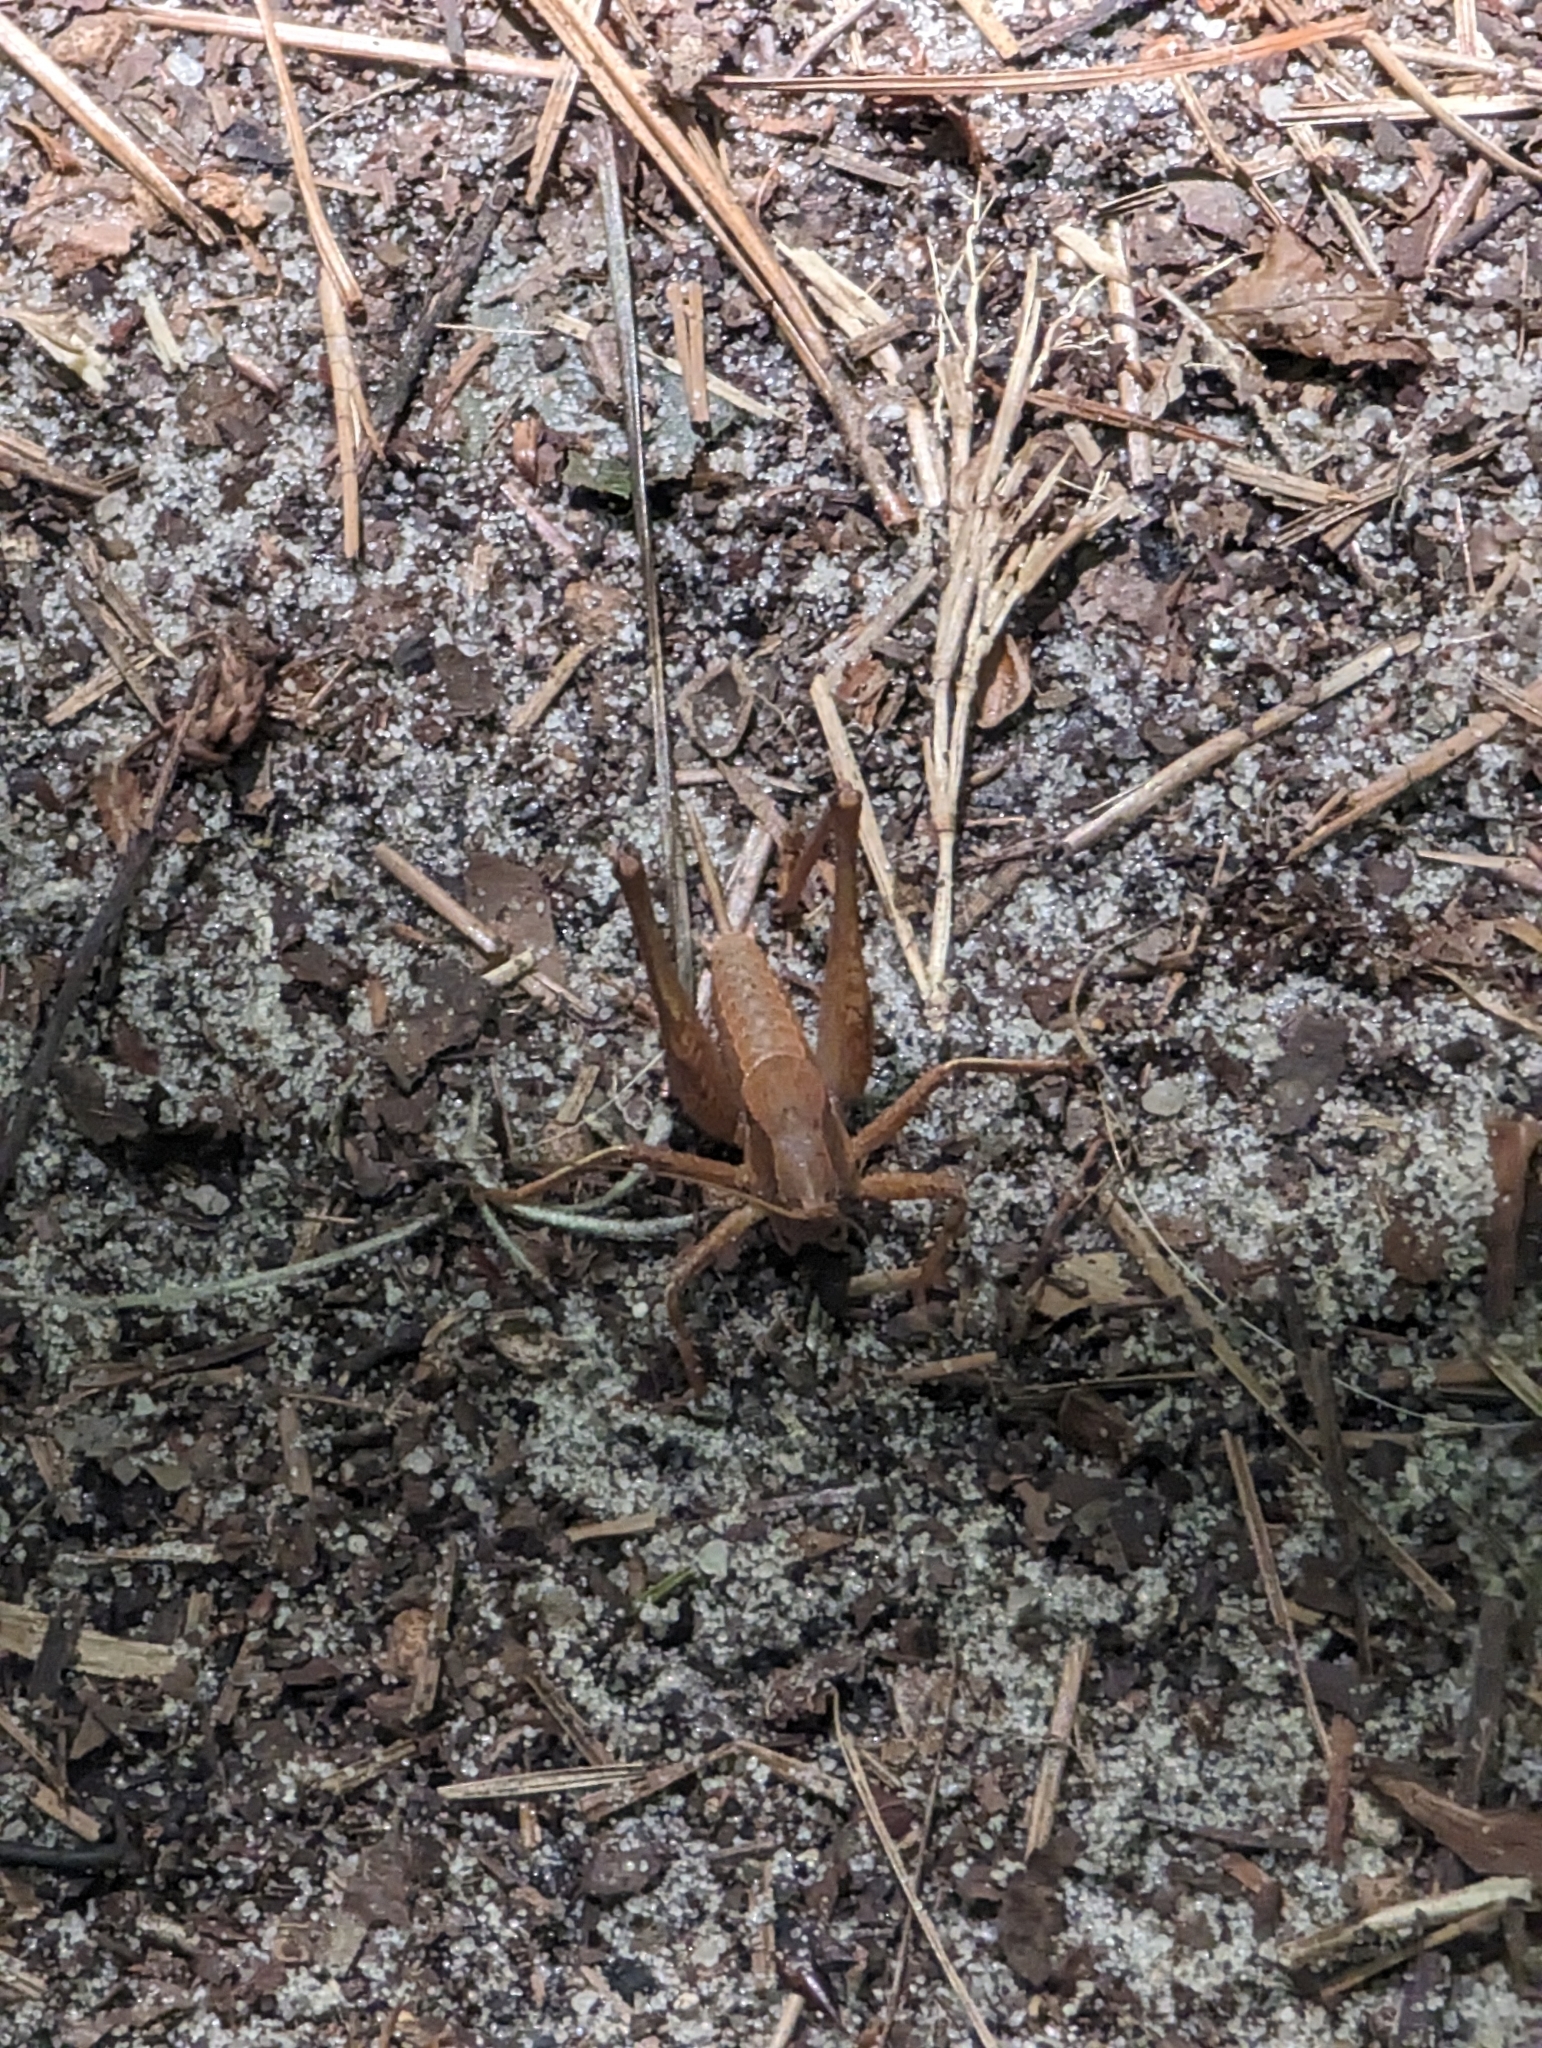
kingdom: Animalia
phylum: Arthropoda
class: Insecta
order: Orthoptera
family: Tettigoniidae
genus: Atlanticus
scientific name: Atlanticus gibbosus
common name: Robust shield-bearer
